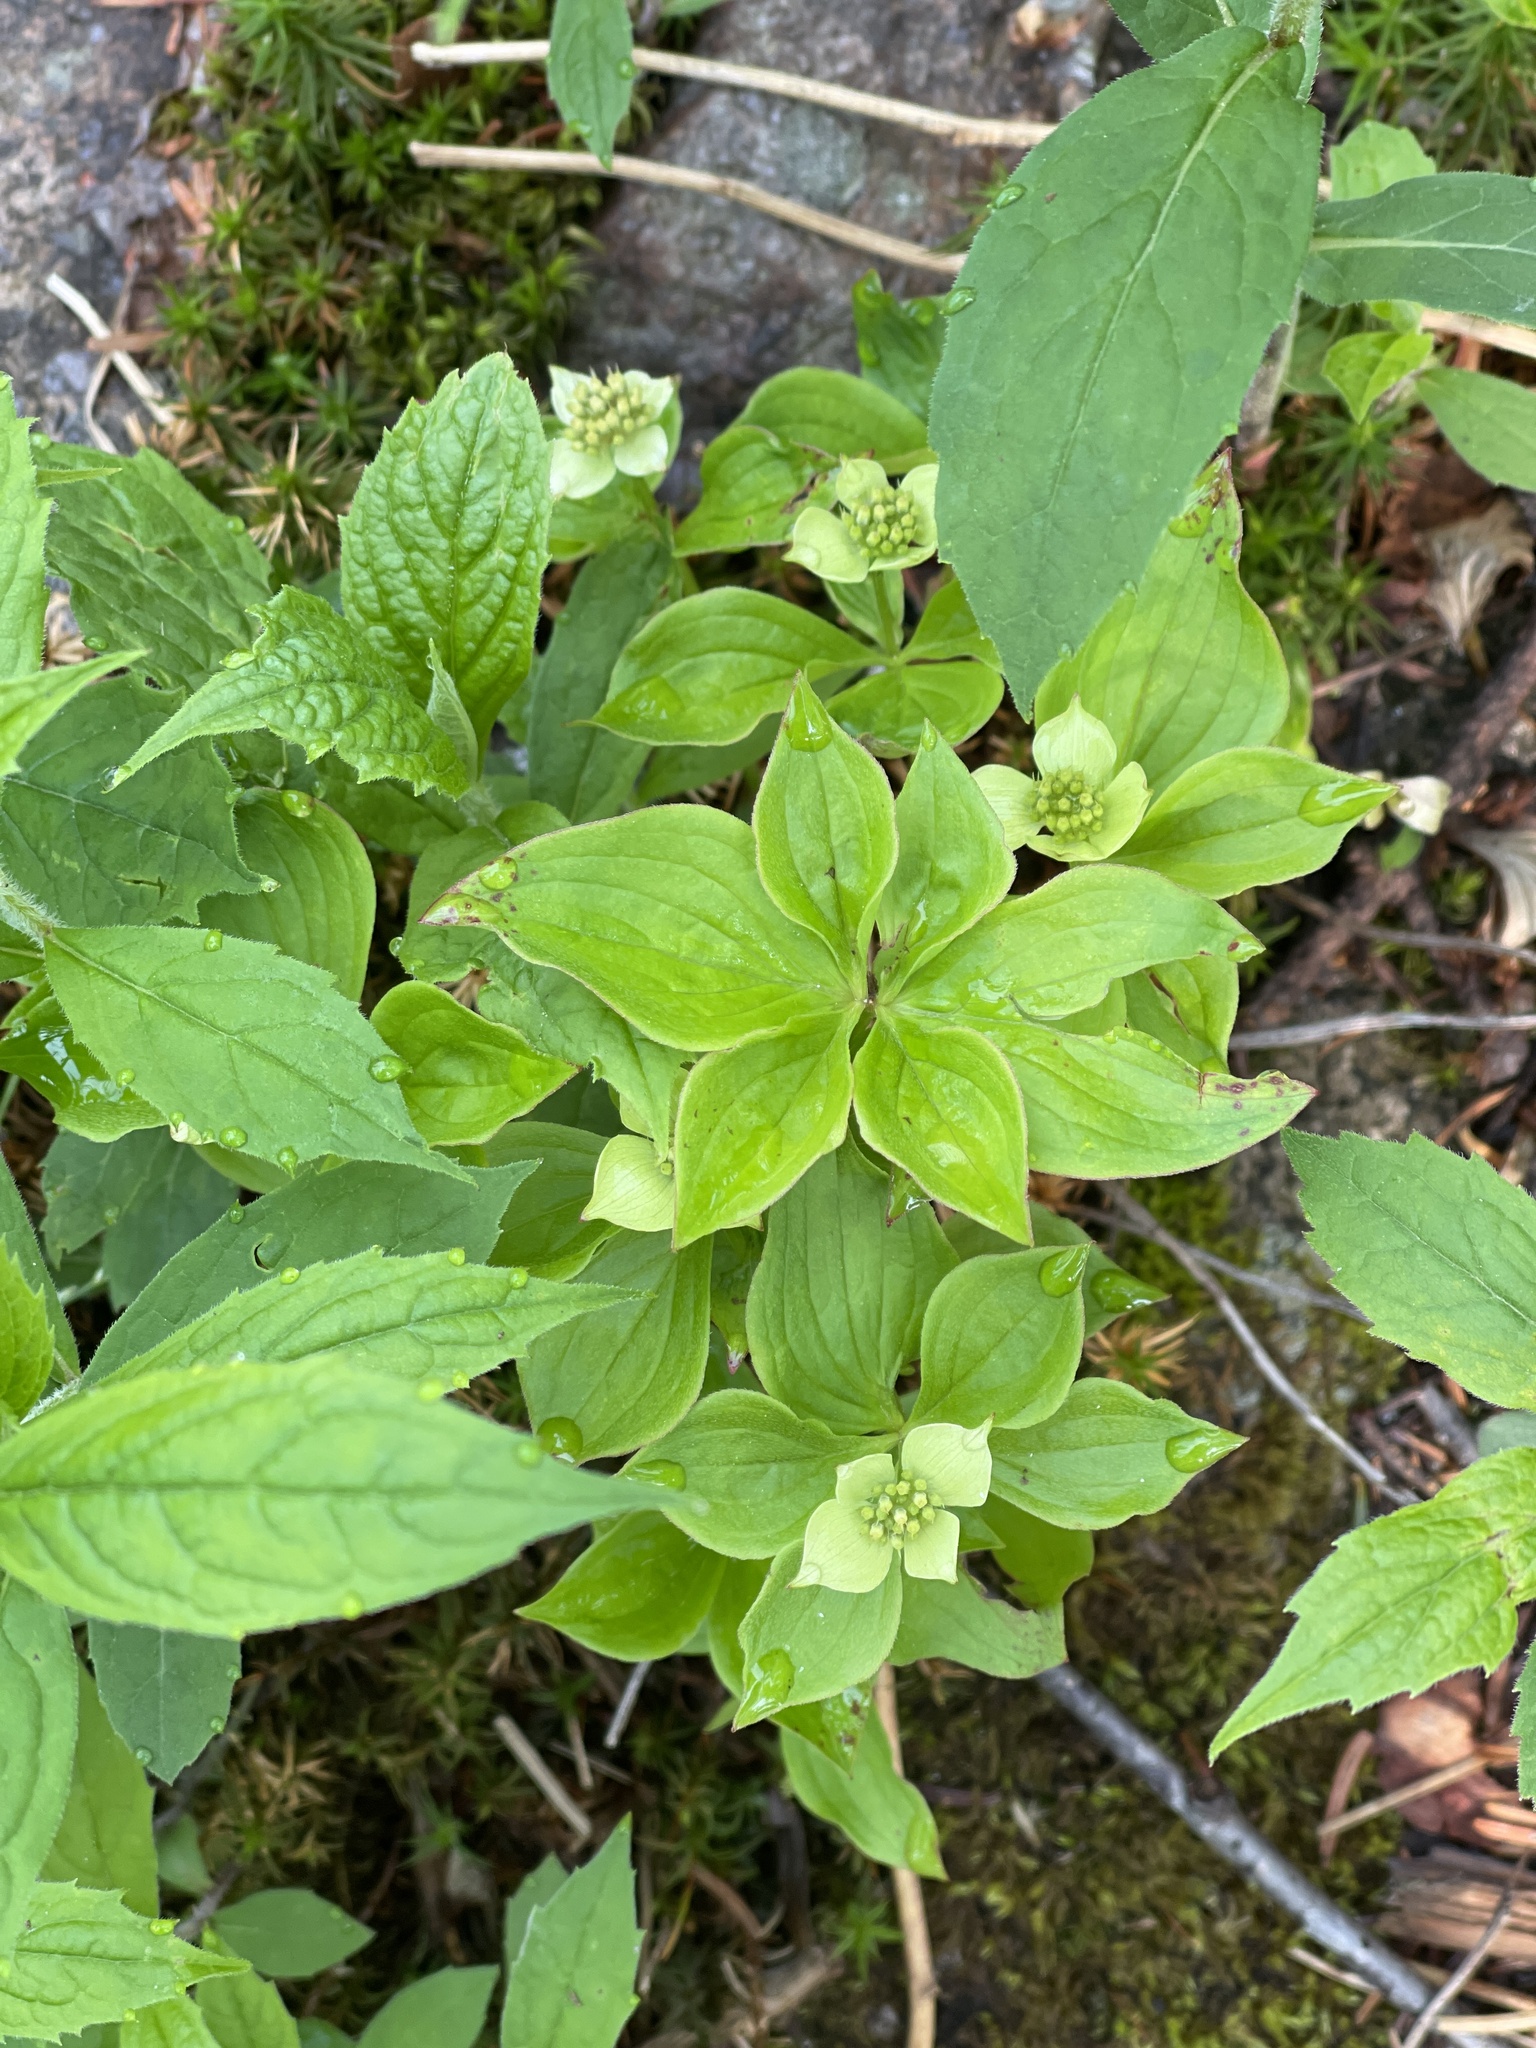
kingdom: Plantae
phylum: Tracheophyta
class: Magnoliopsida
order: Cornales
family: Cornaceae
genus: Cornus
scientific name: Cornus canadensis
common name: Creeping dogwood
